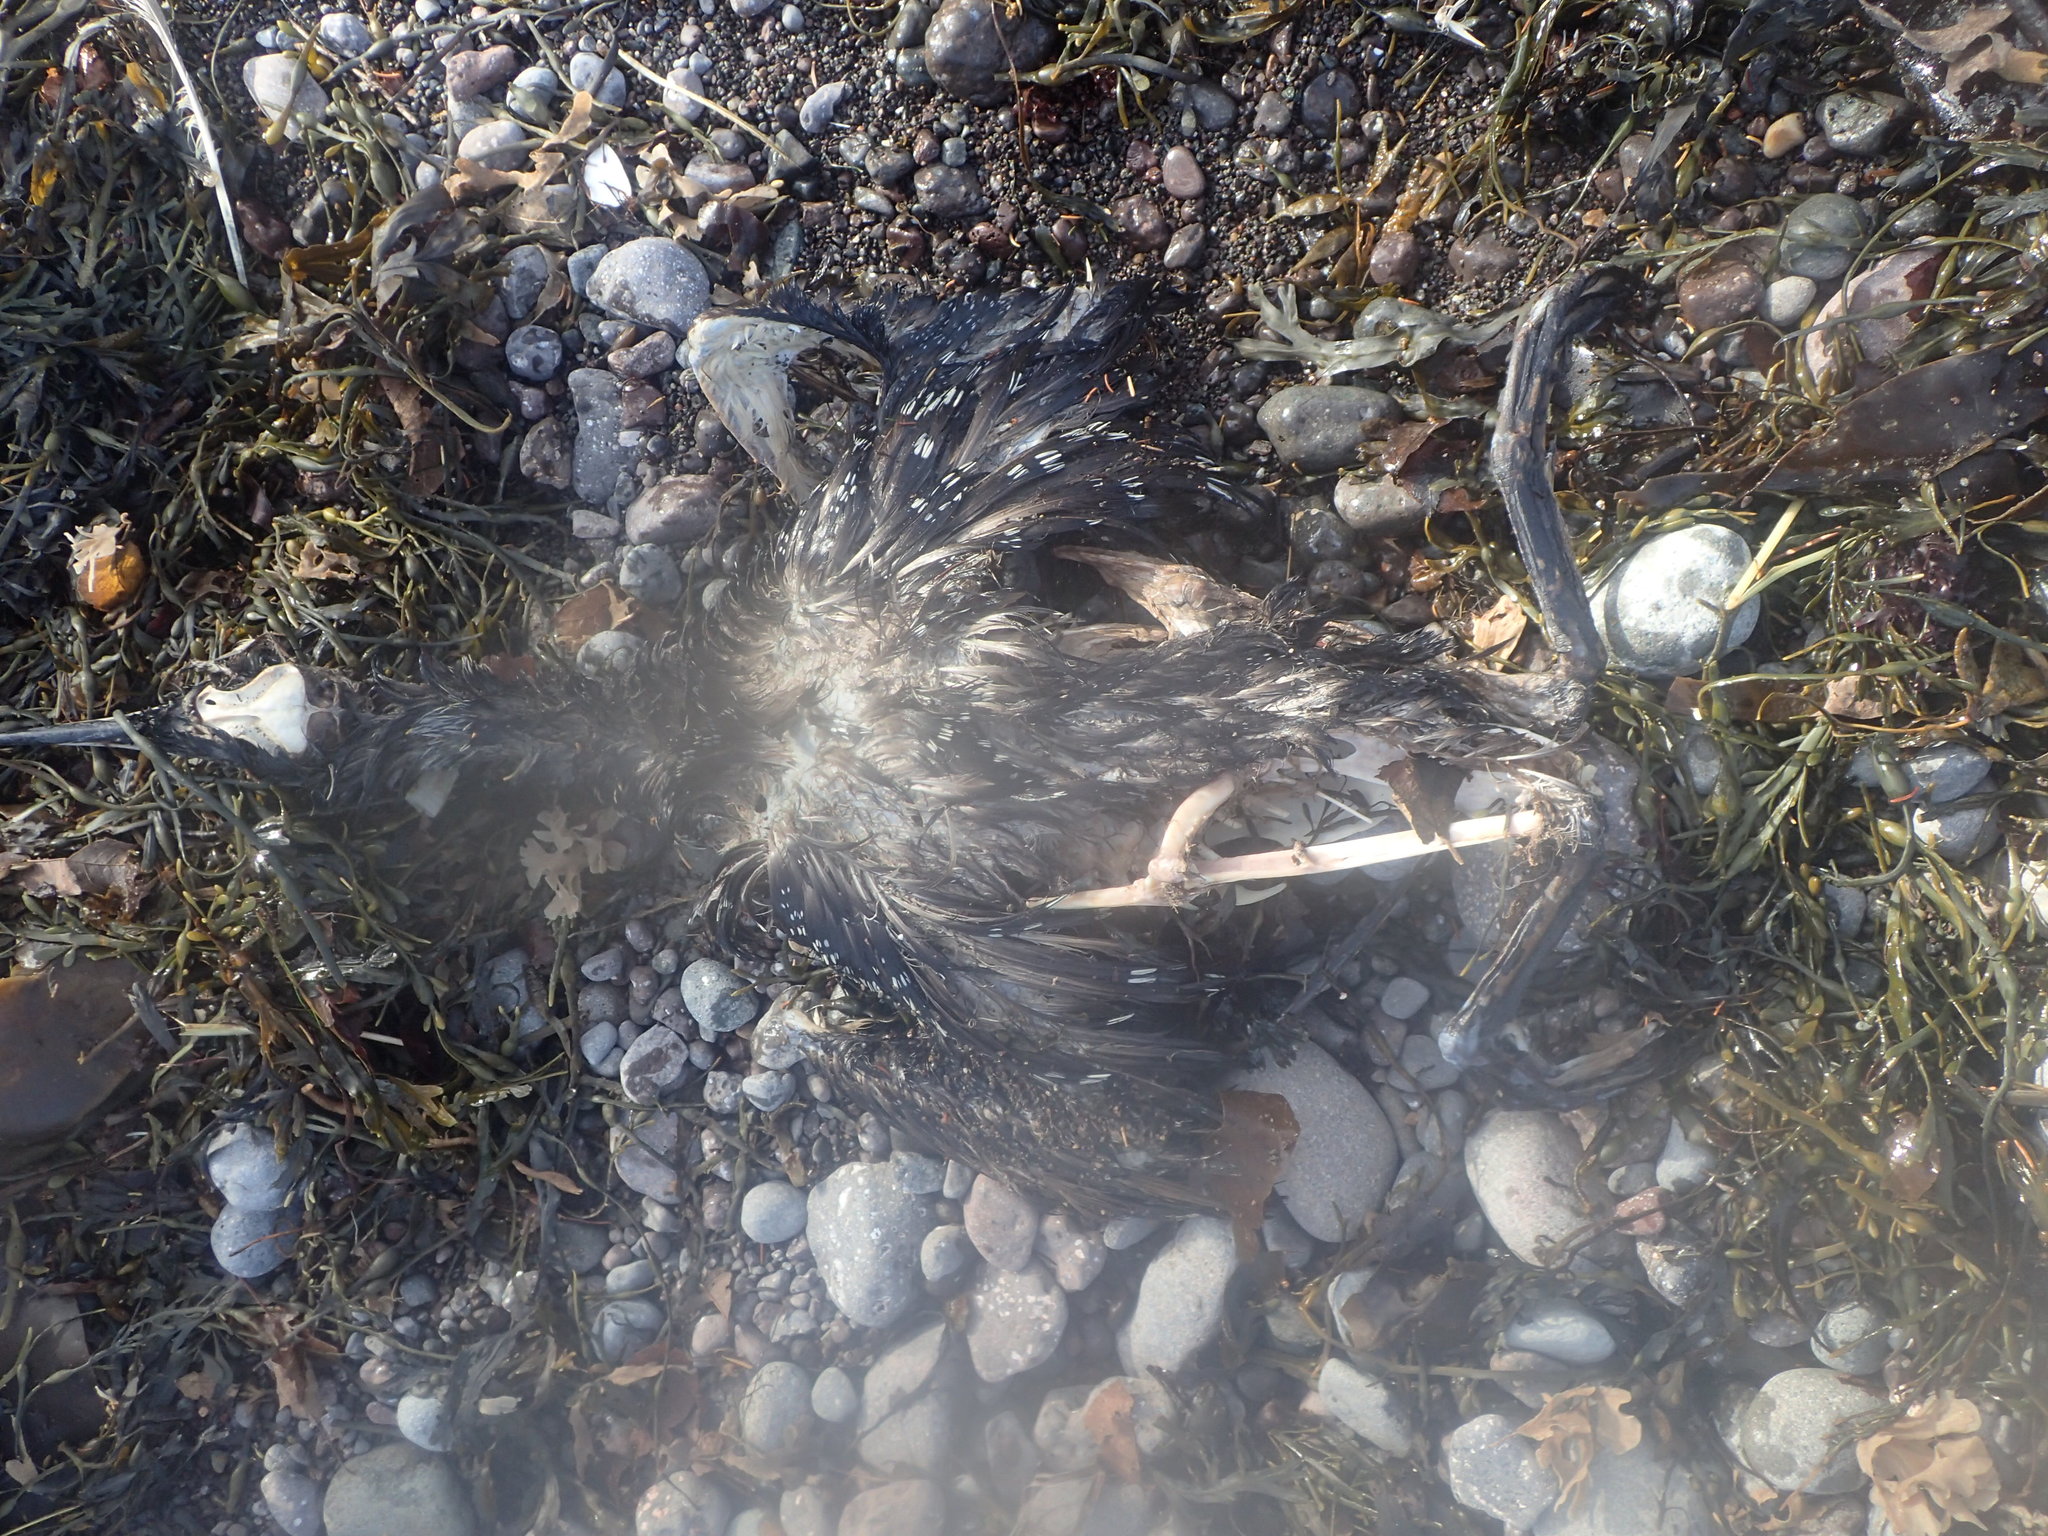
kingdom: Animalia
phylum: Chordata
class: Aves
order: Gaviiformes
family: Gaviidae
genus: Gavia
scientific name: Gavia immer
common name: Common loon
